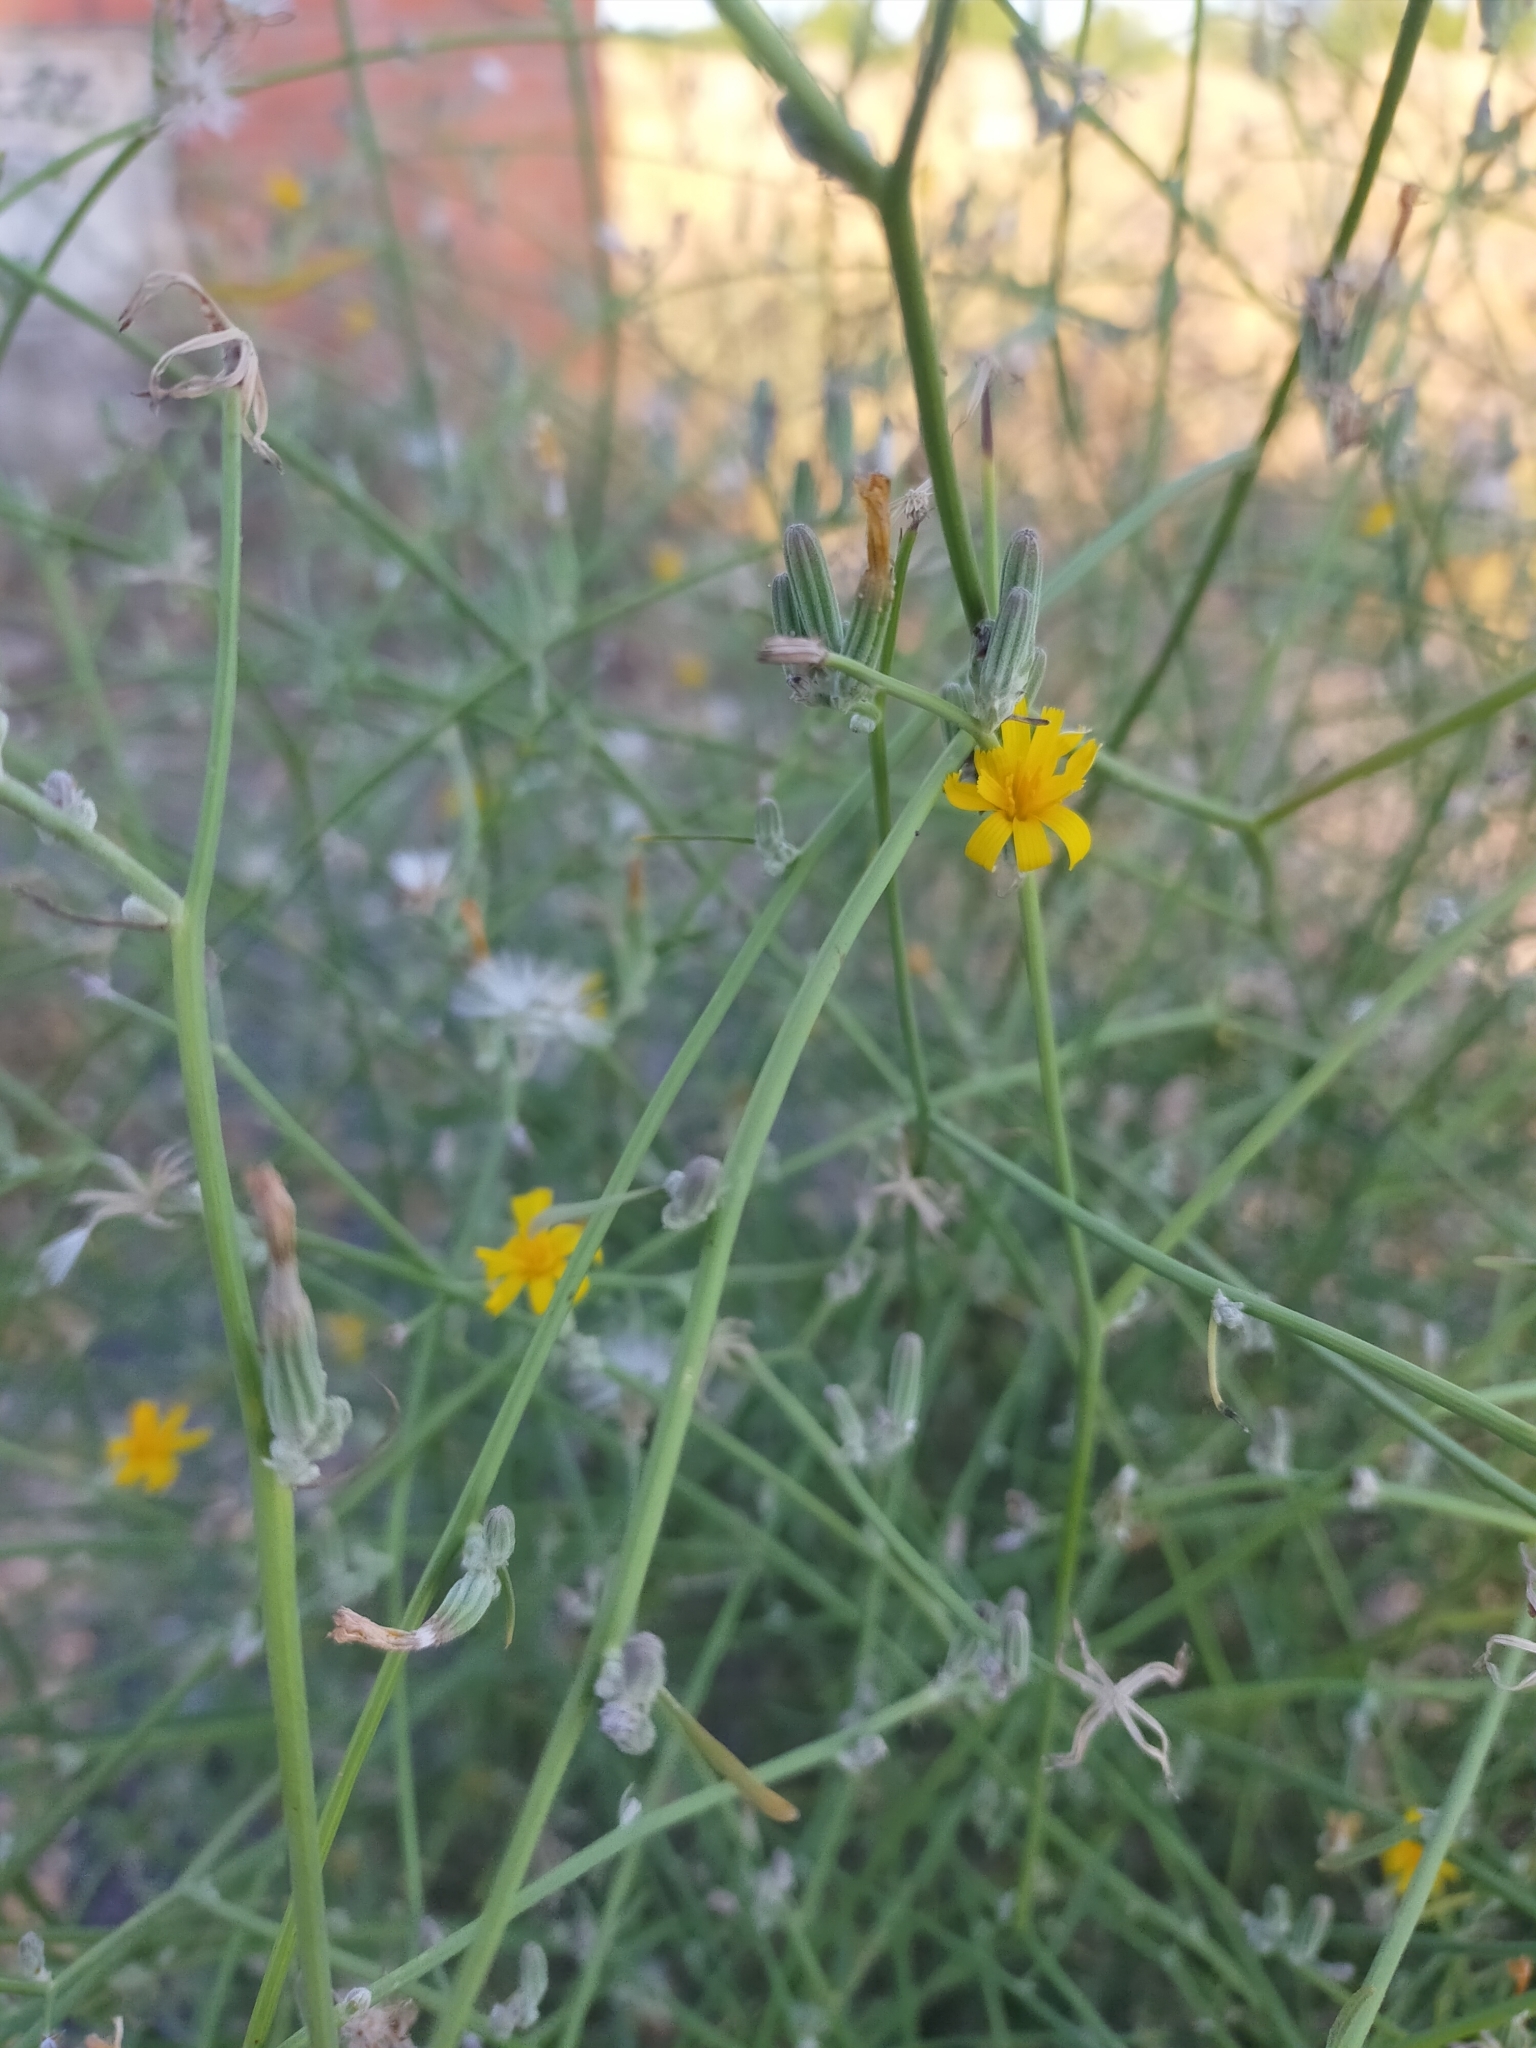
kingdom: Plantae
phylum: Tracheophyta
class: Magnoliopsida
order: Asterales
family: Asteraceae
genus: Chondrilla
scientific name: Chondrilla juncea
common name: Skeleton weed
